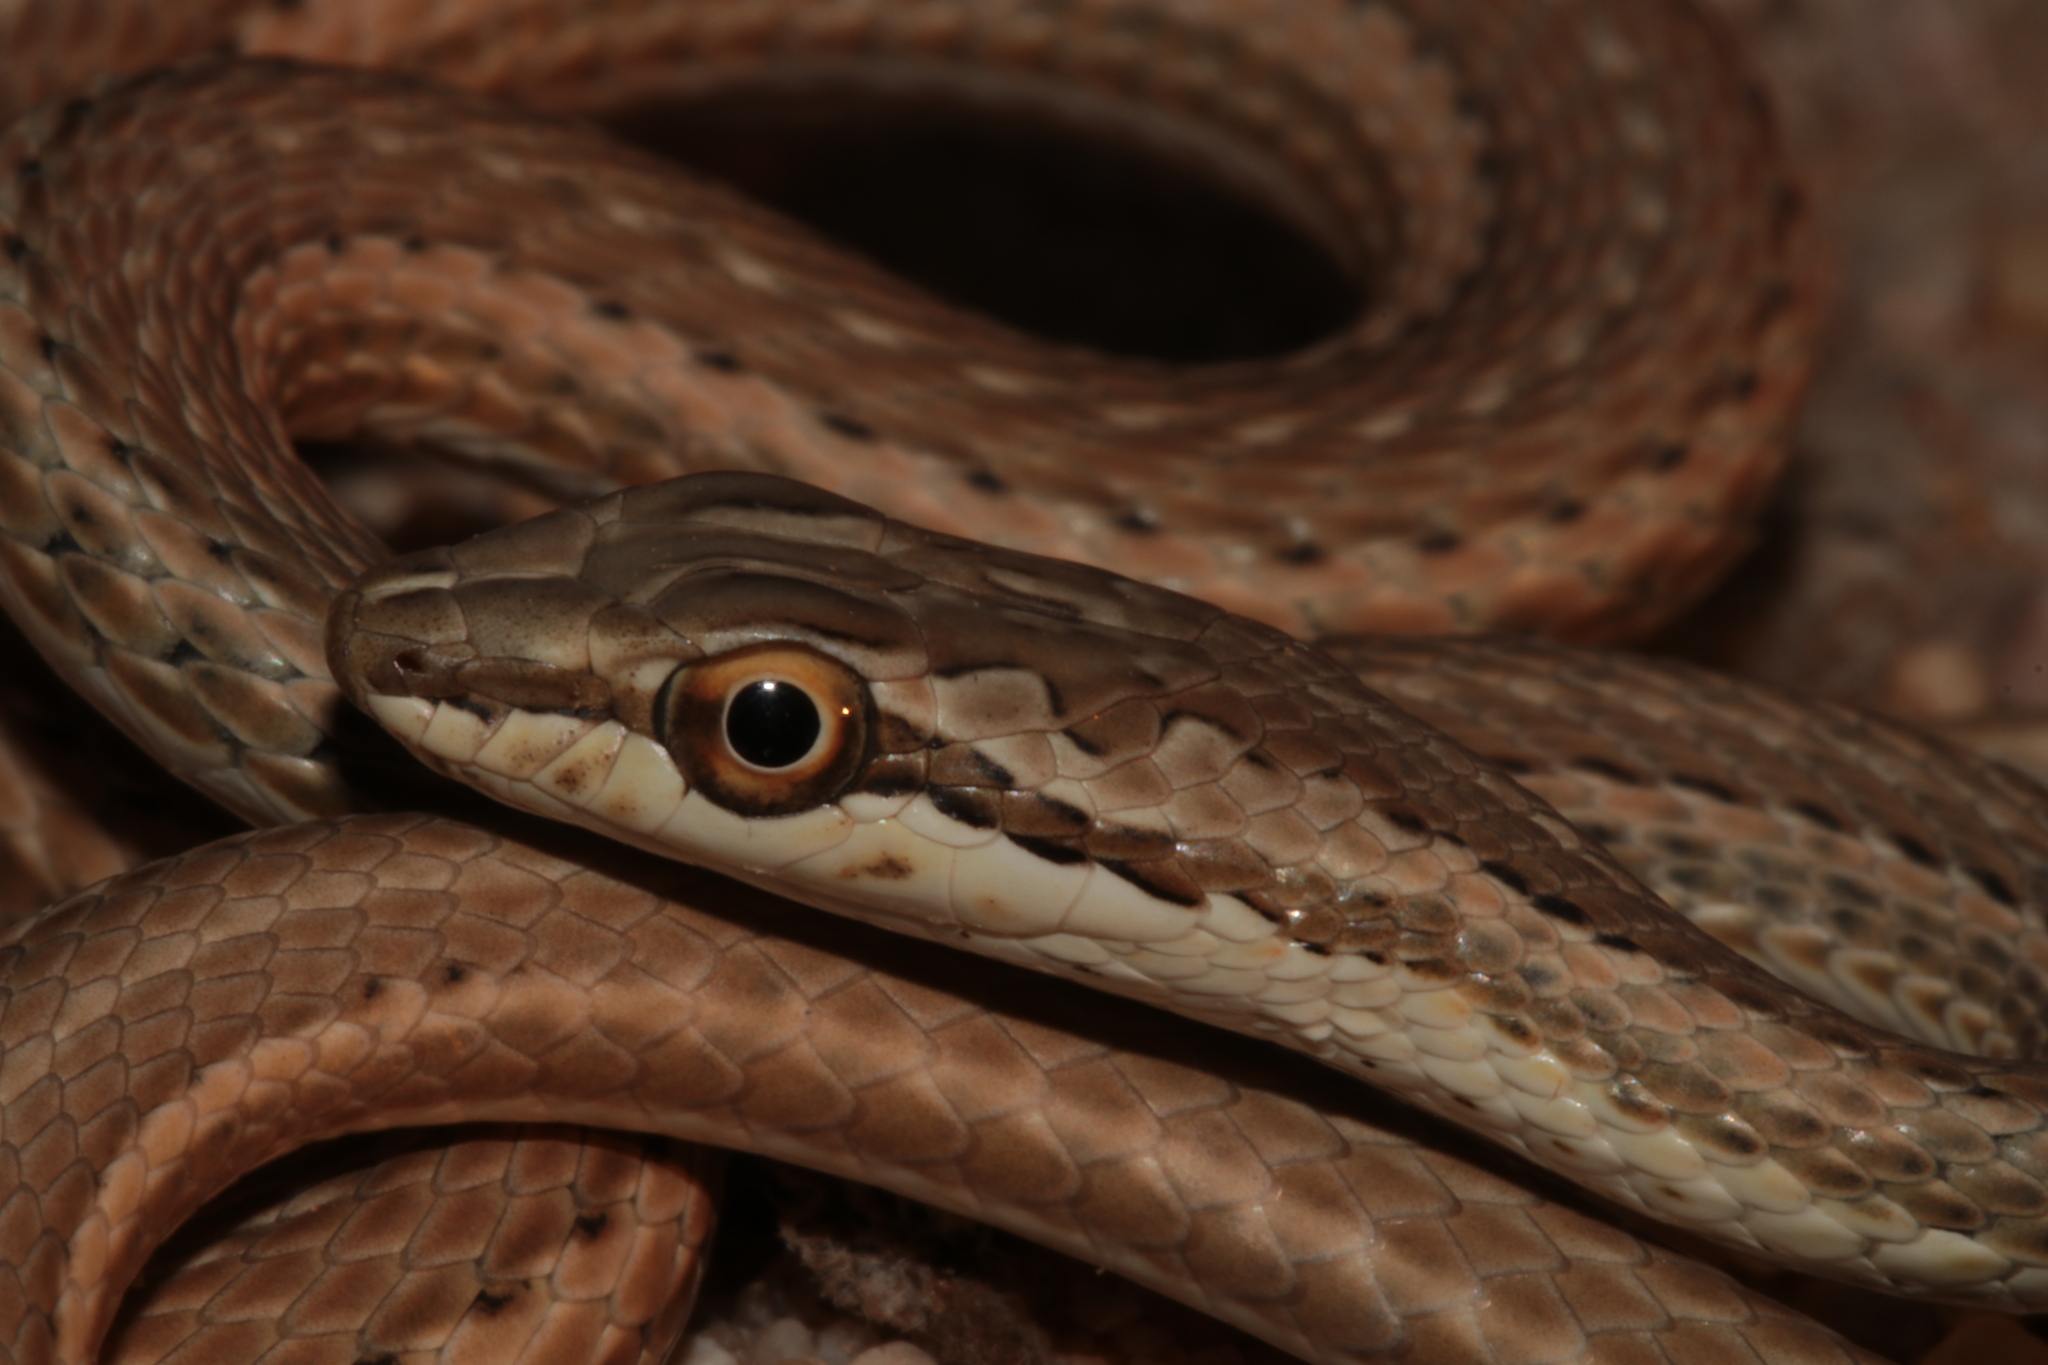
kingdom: Animalia
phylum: Chordata
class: Squamata
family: Psammophiidae
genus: Psammophis
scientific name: Psammophis schokari
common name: Schokari sand racer
